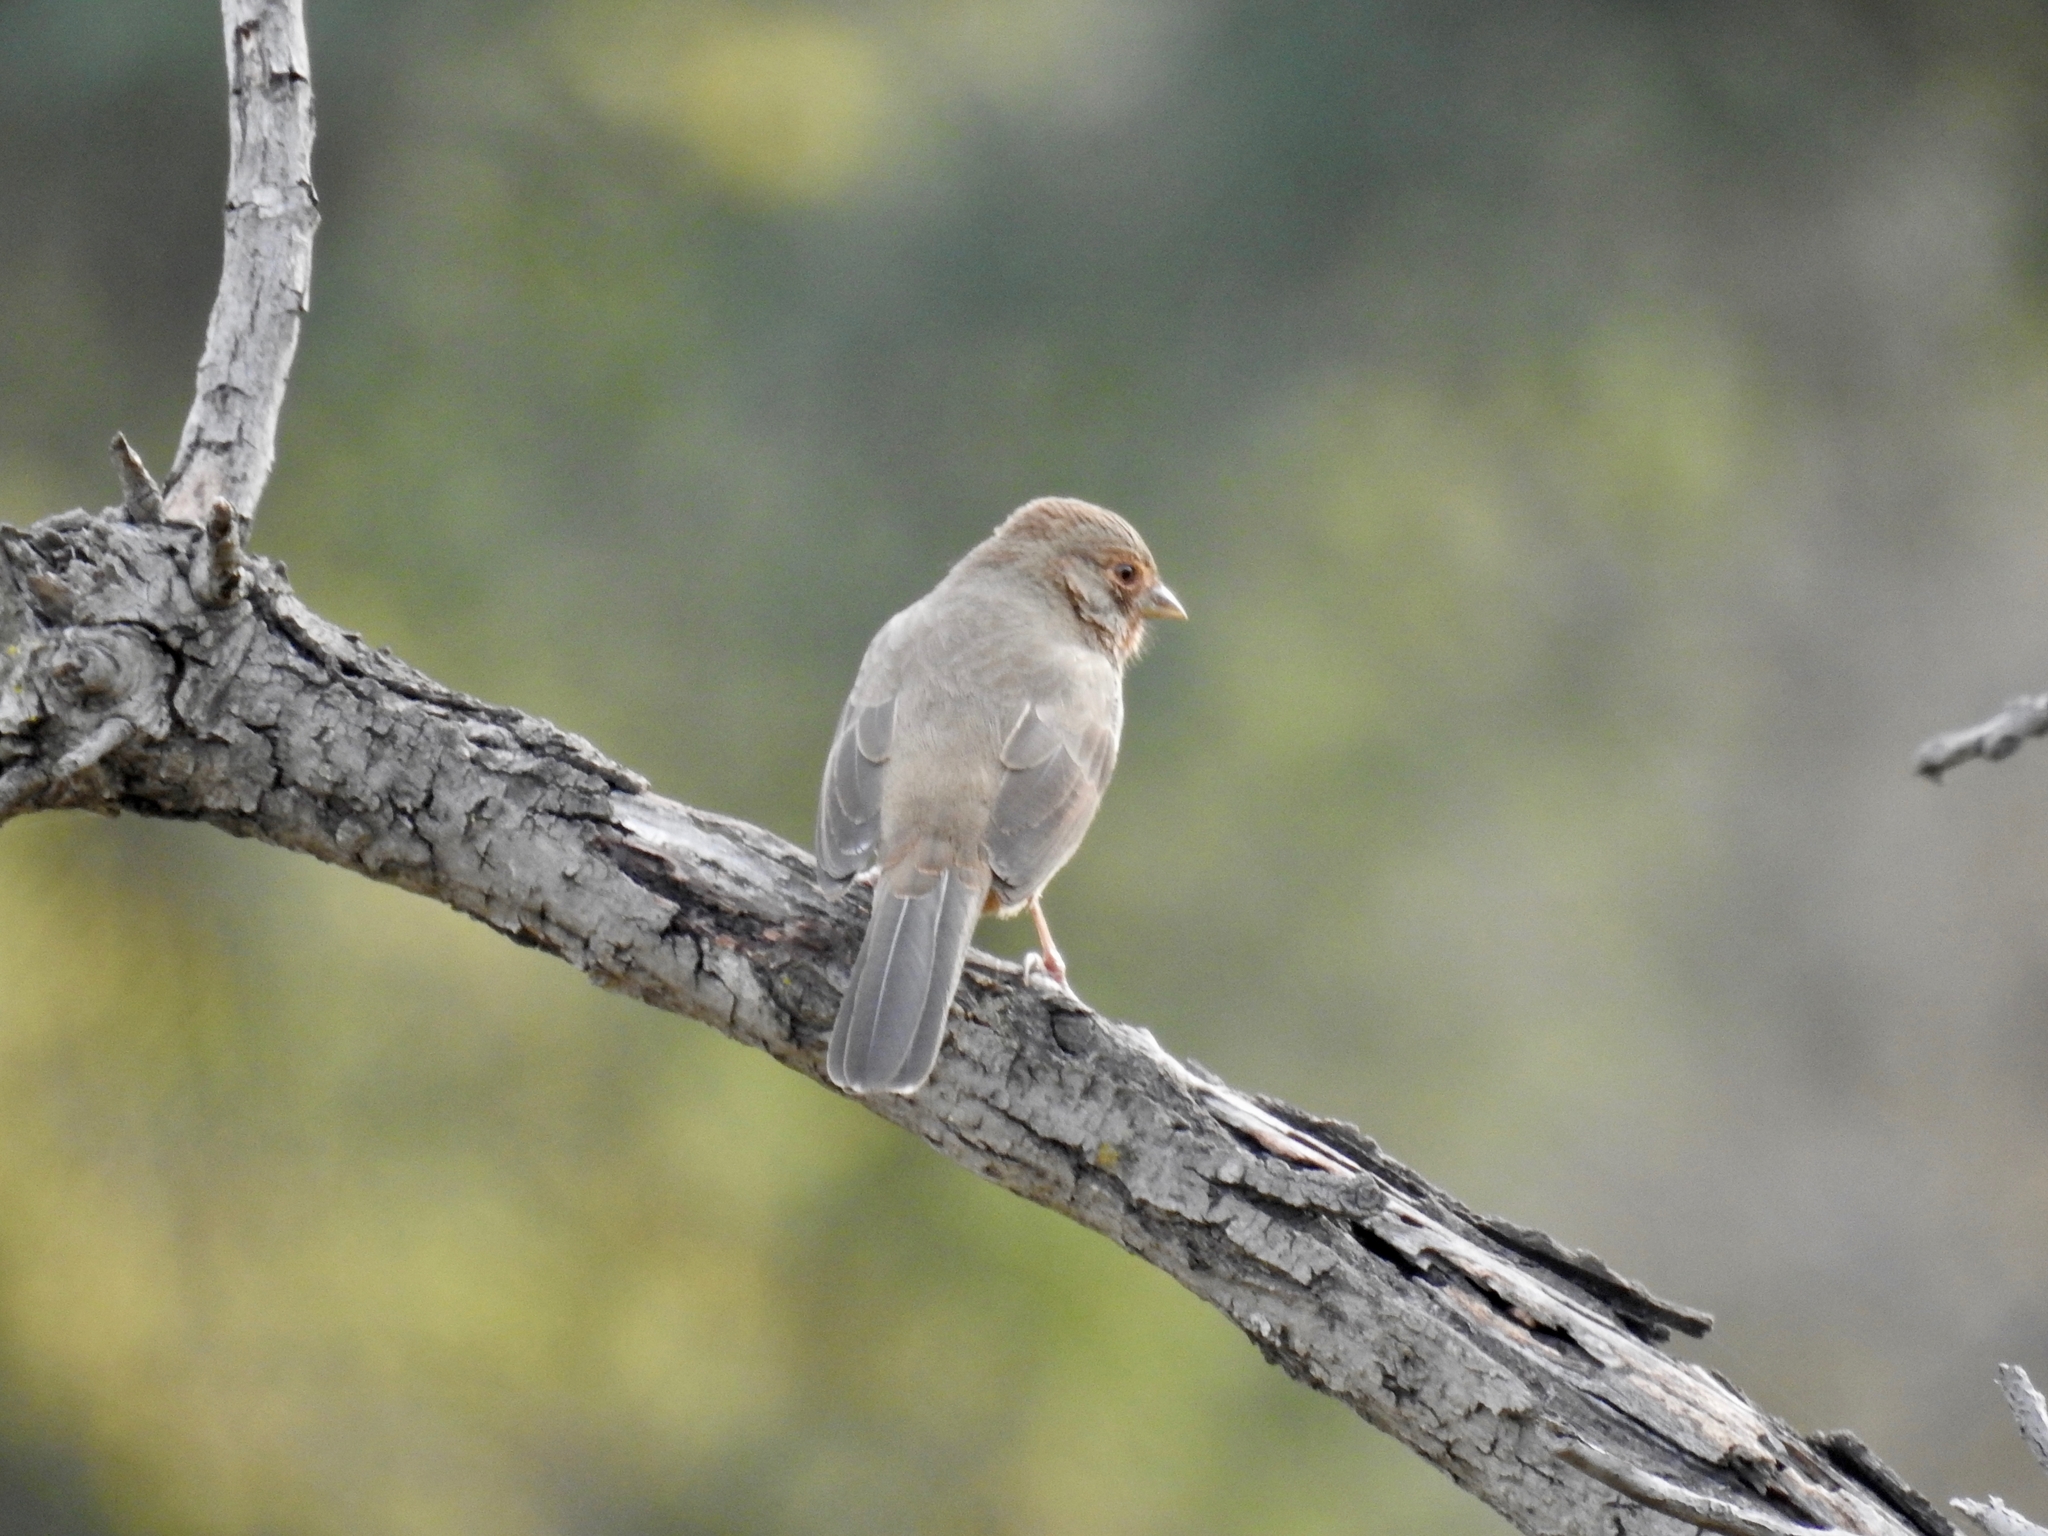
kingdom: Animalia
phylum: Chordata
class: Aves
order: Passeriformes
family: Passerellidae
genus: Melozone
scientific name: Melozone crissalis
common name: California towhee
